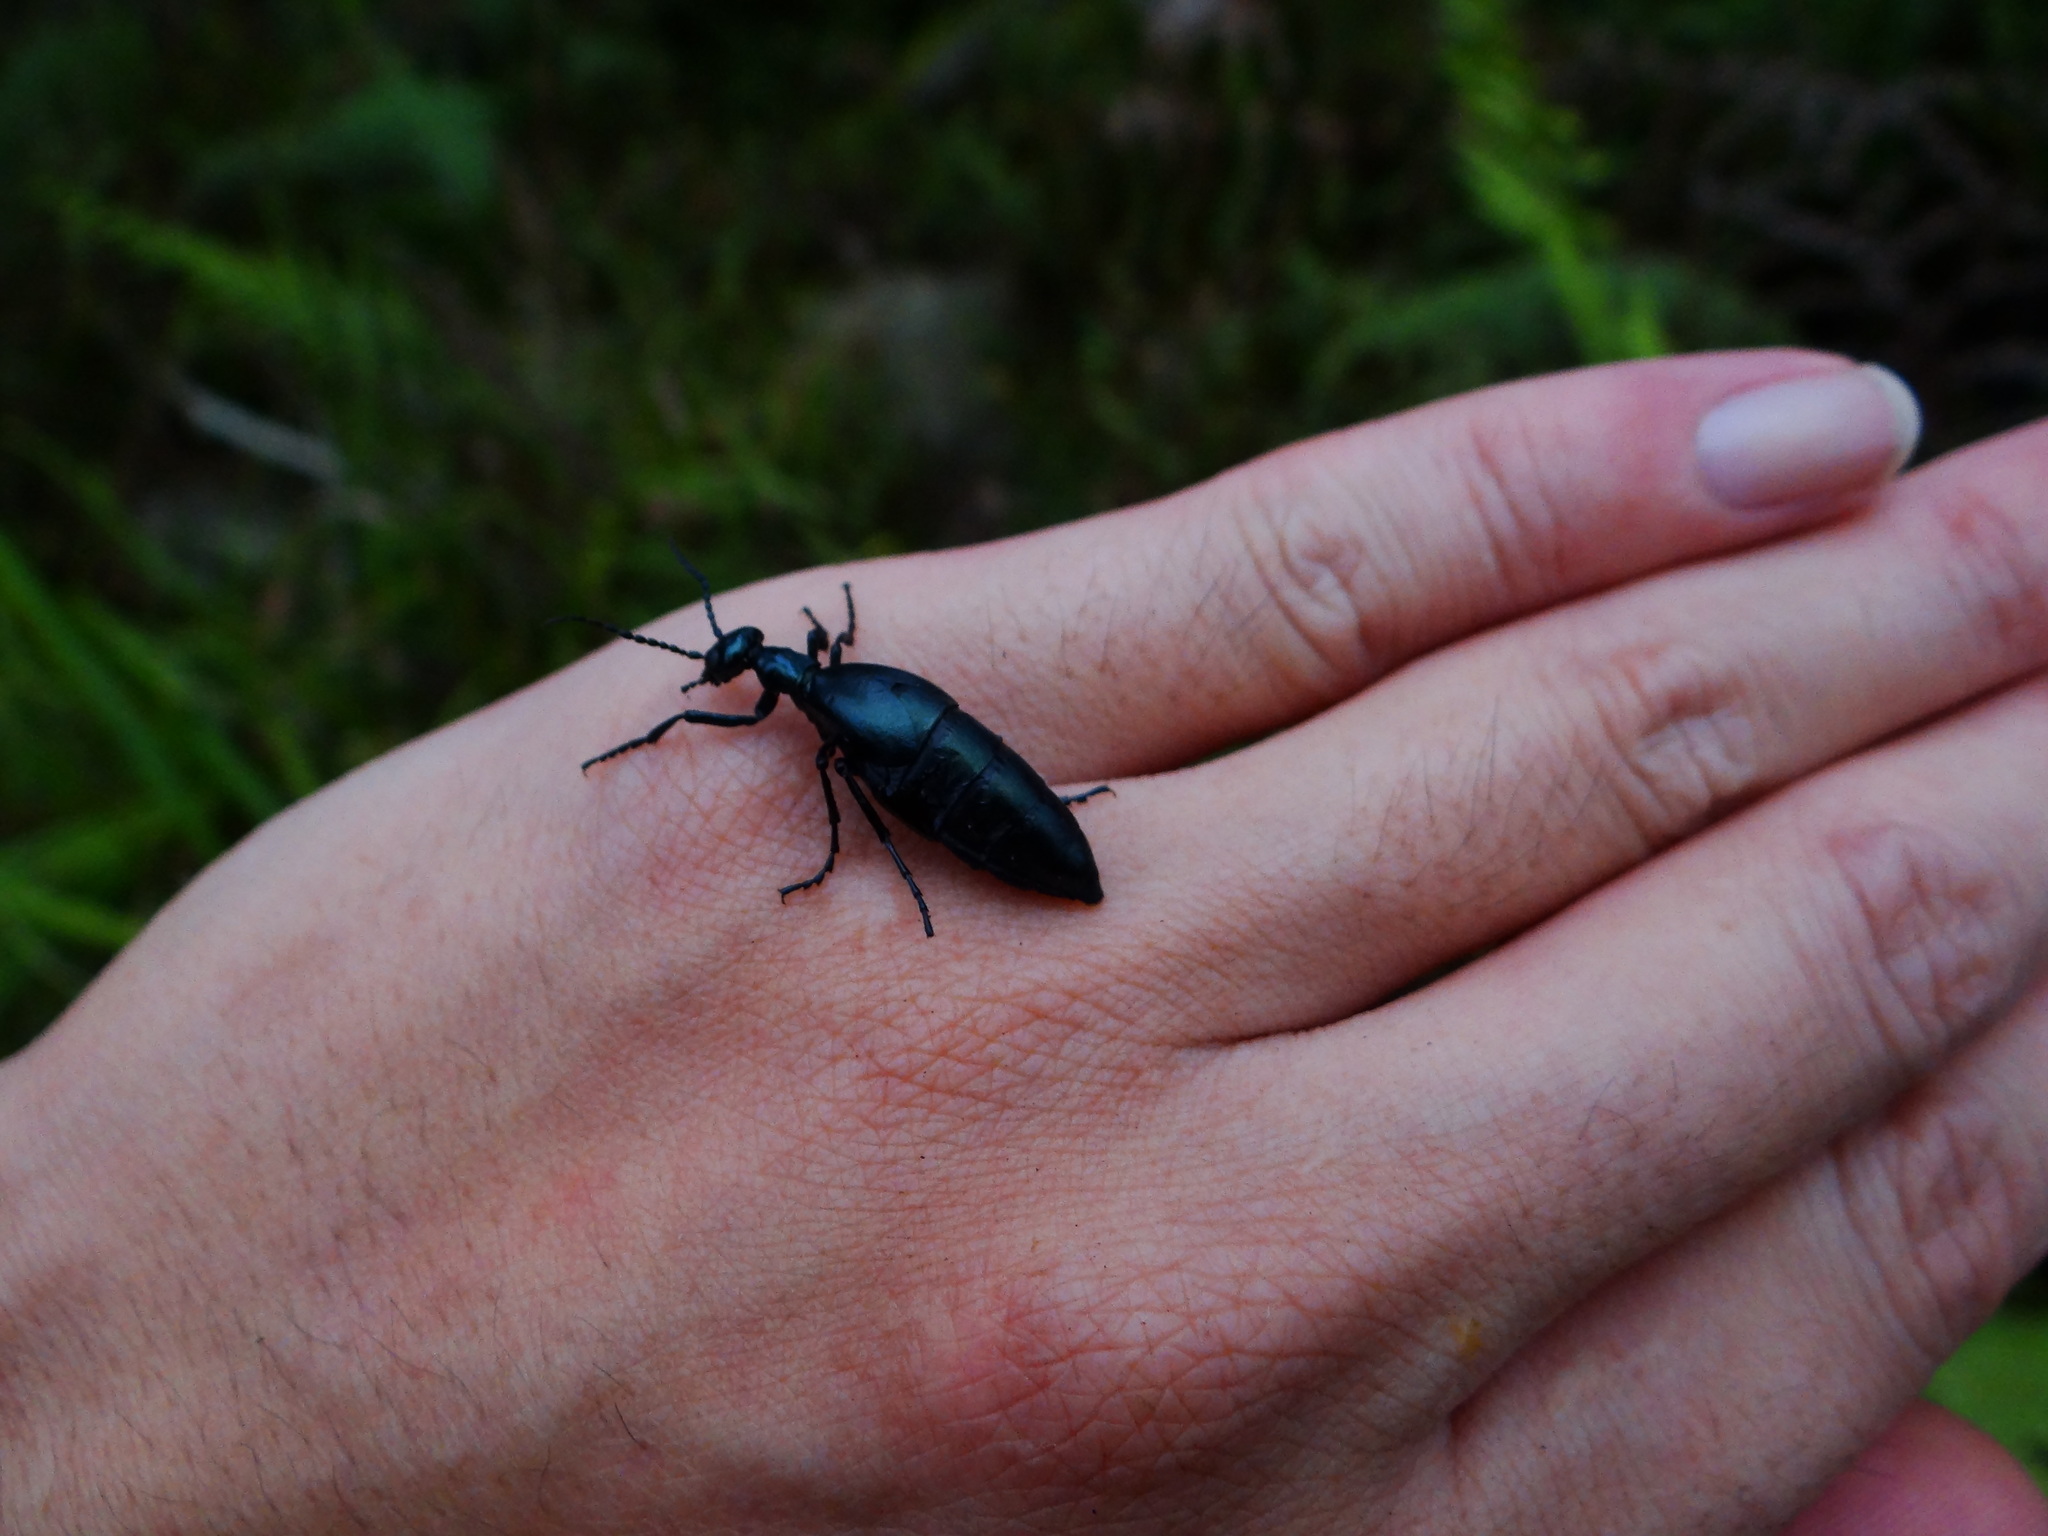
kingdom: Animalia
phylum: Arthropoda
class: Insecta
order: Coleoptera
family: Meloidae
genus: Meloe
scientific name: Meloe formosensis
